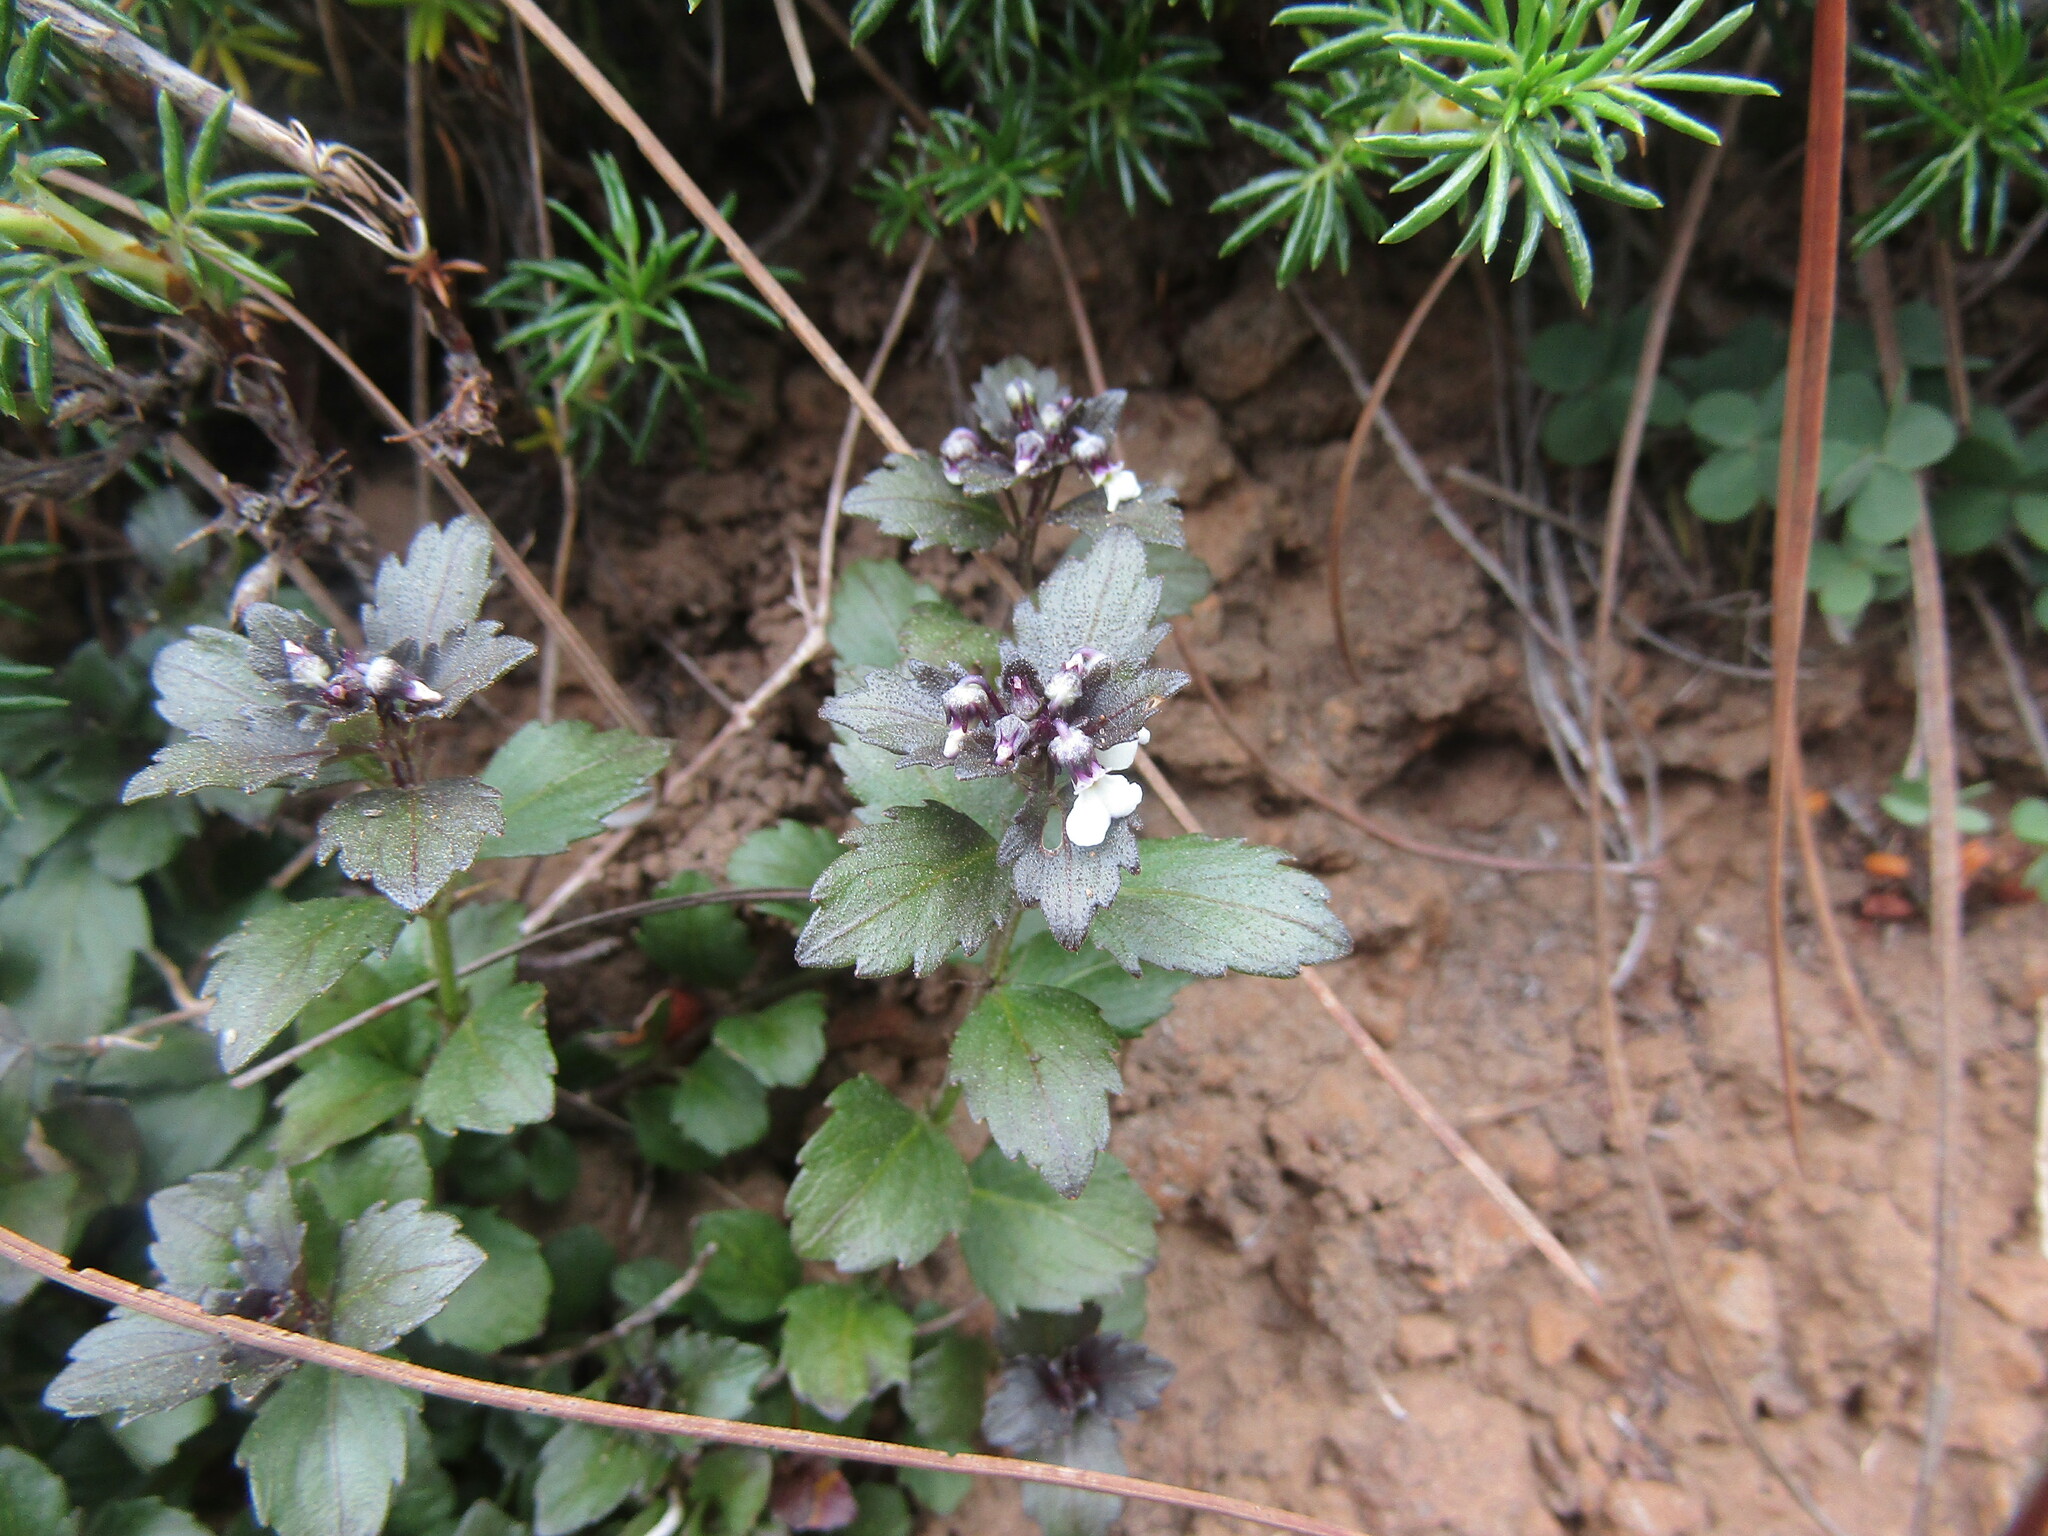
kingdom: Plantae
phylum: Tracheophyta
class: Magnoliopsida
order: Malpighiales
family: Violaceae
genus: Pombalia
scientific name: Pombalia parviflora
